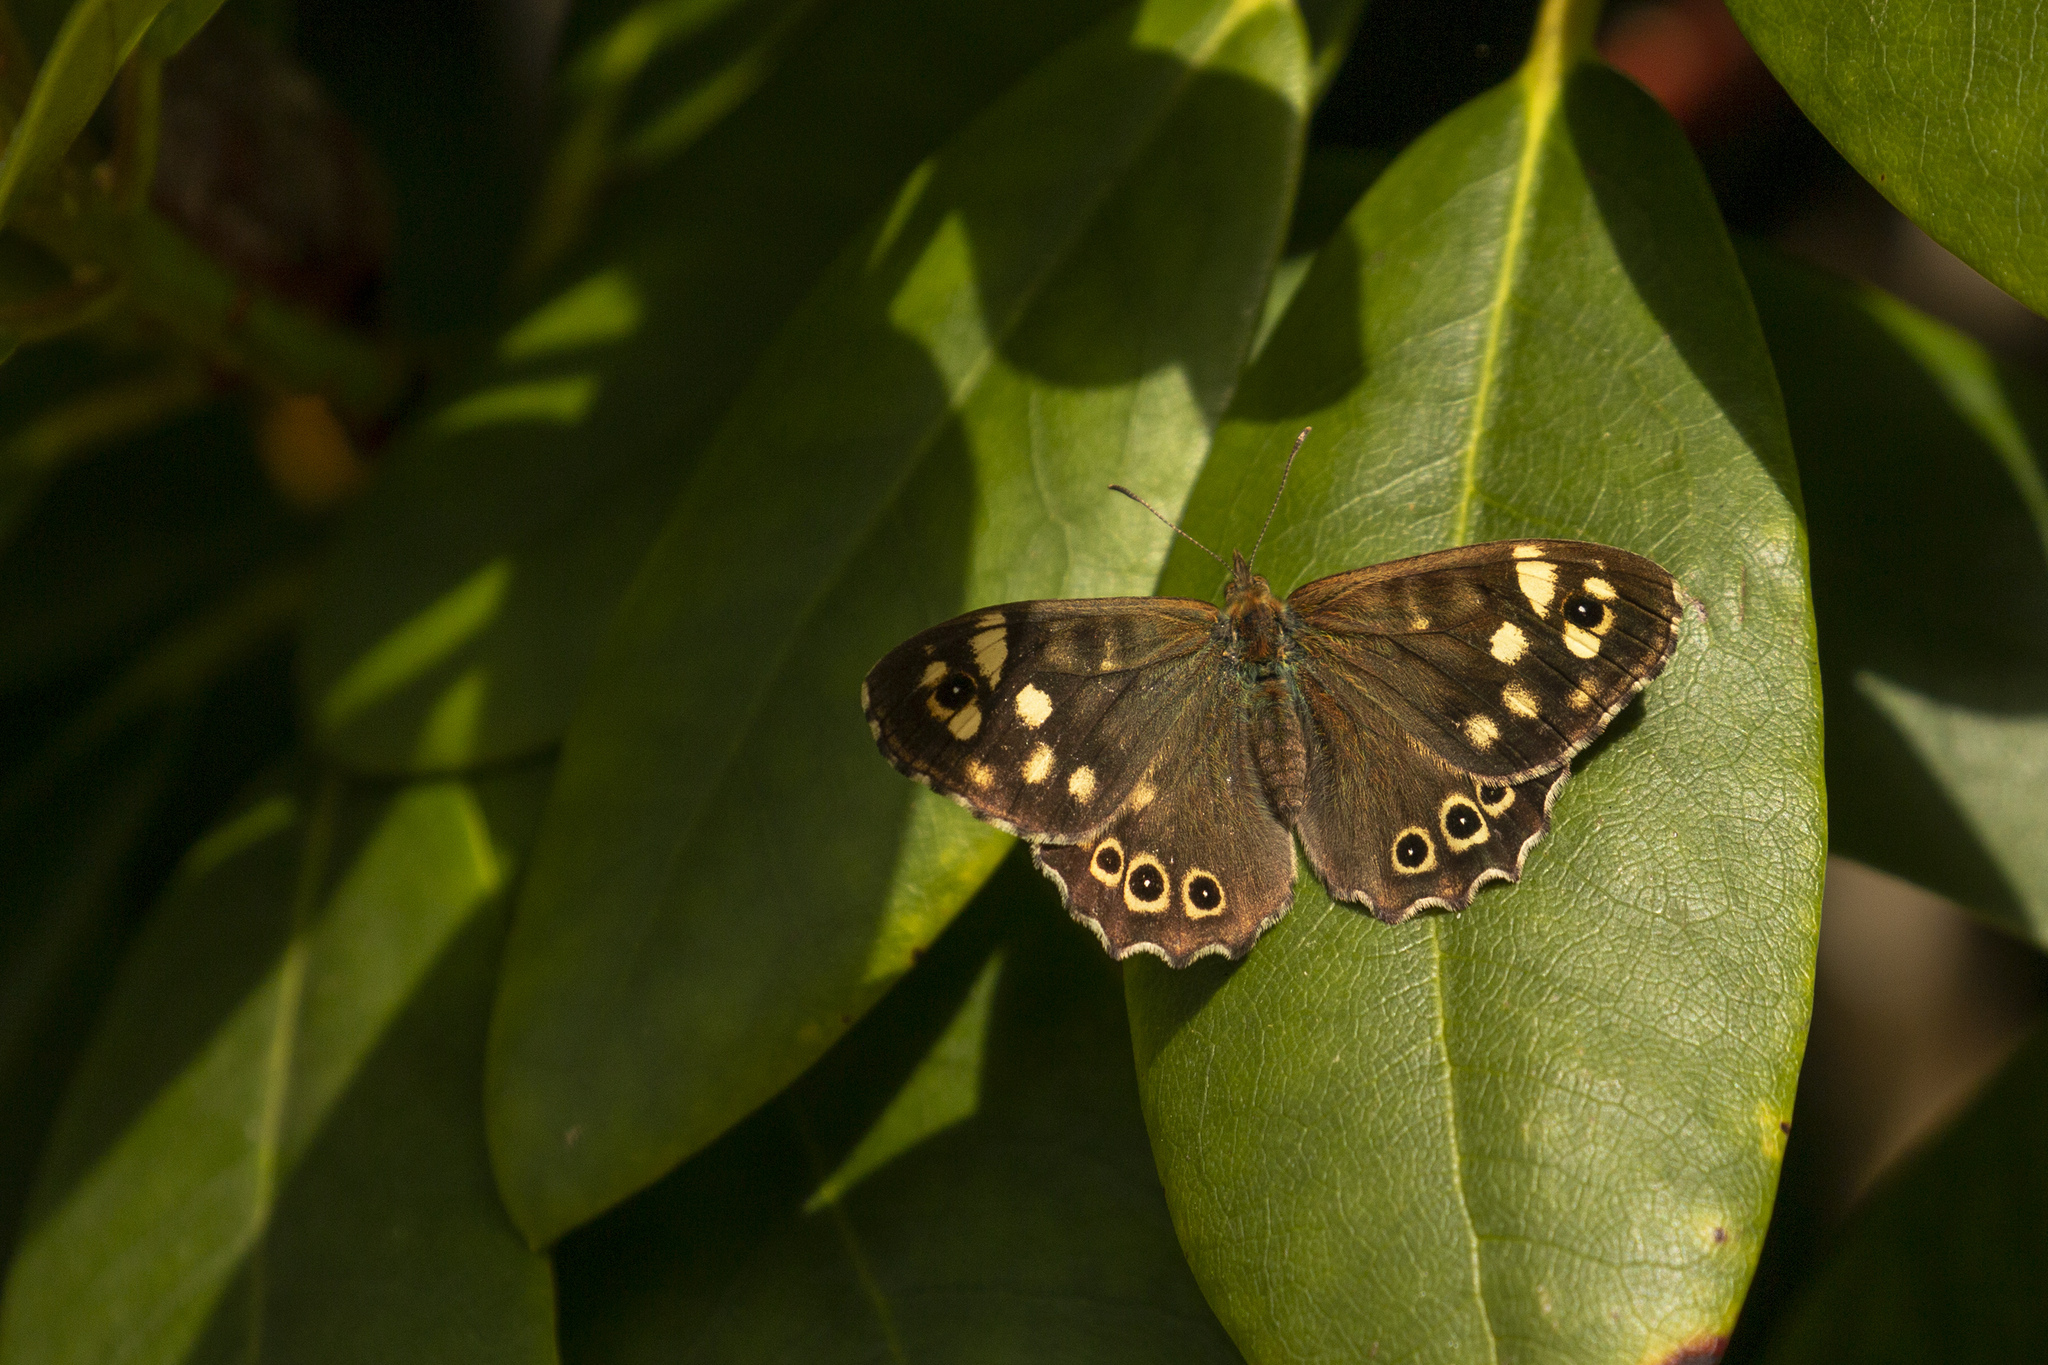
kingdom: Animalia
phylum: Arthropoda
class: Insecta
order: Lepidoptera
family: Nymphalidae
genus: Pararge
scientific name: Pararge aegeria
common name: Speckled wood
